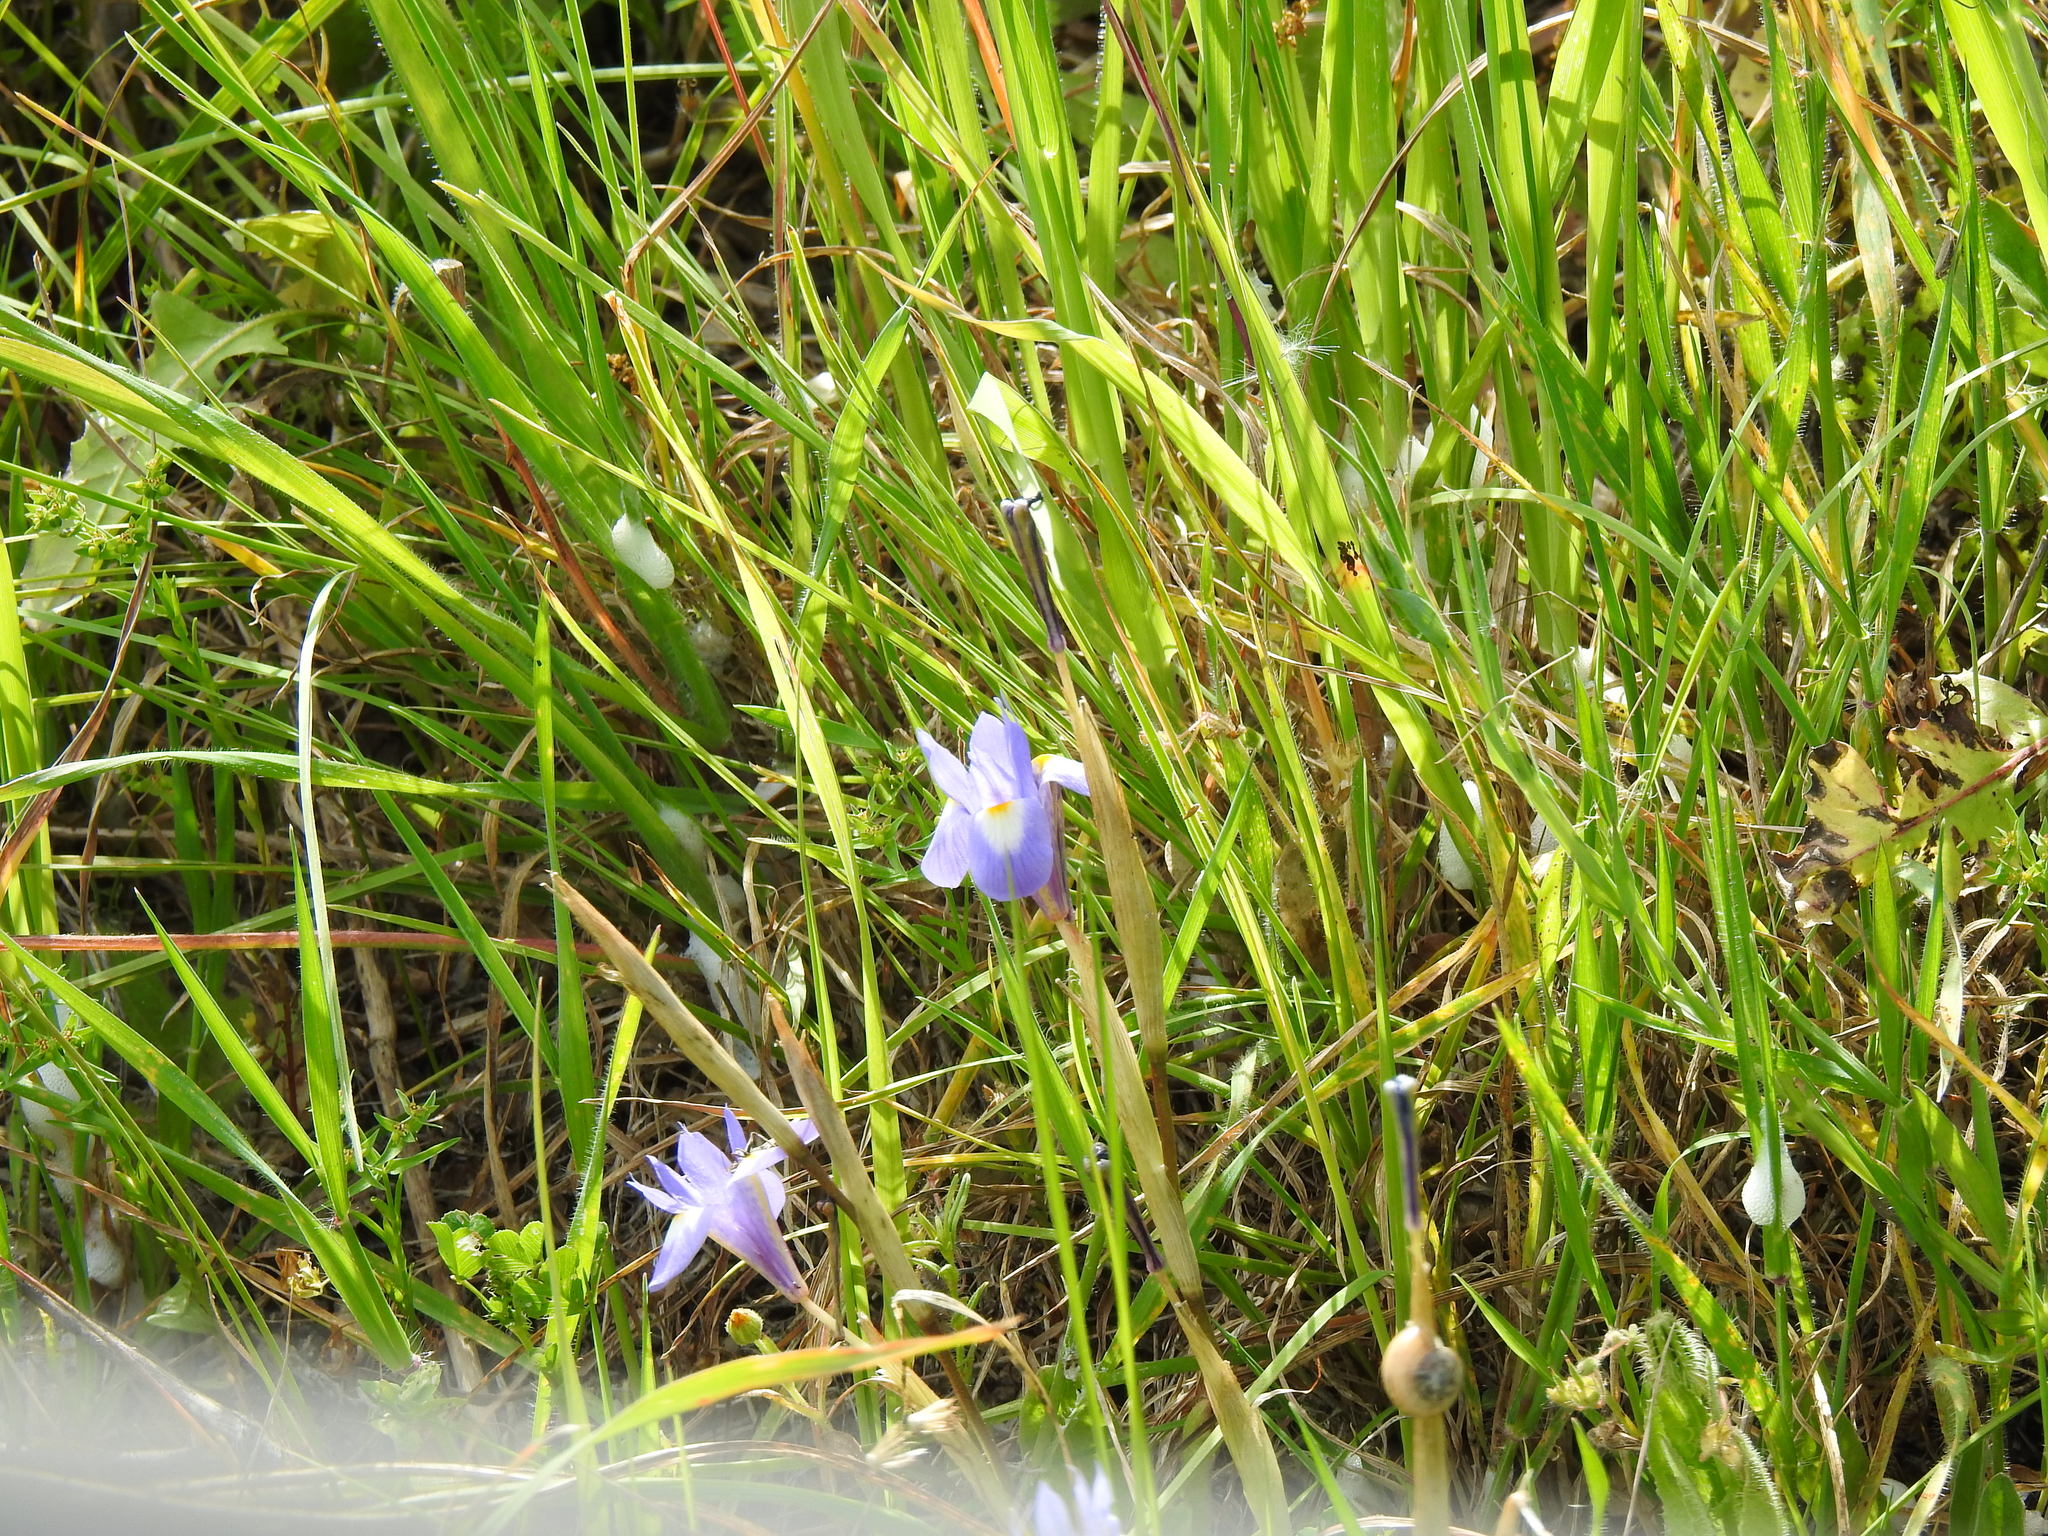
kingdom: Plantae
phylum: Tracheophyta
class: Liliopsida
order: Asparagales
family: Iridaceae
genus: Moraea
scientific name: Moraea sisyrinchium
